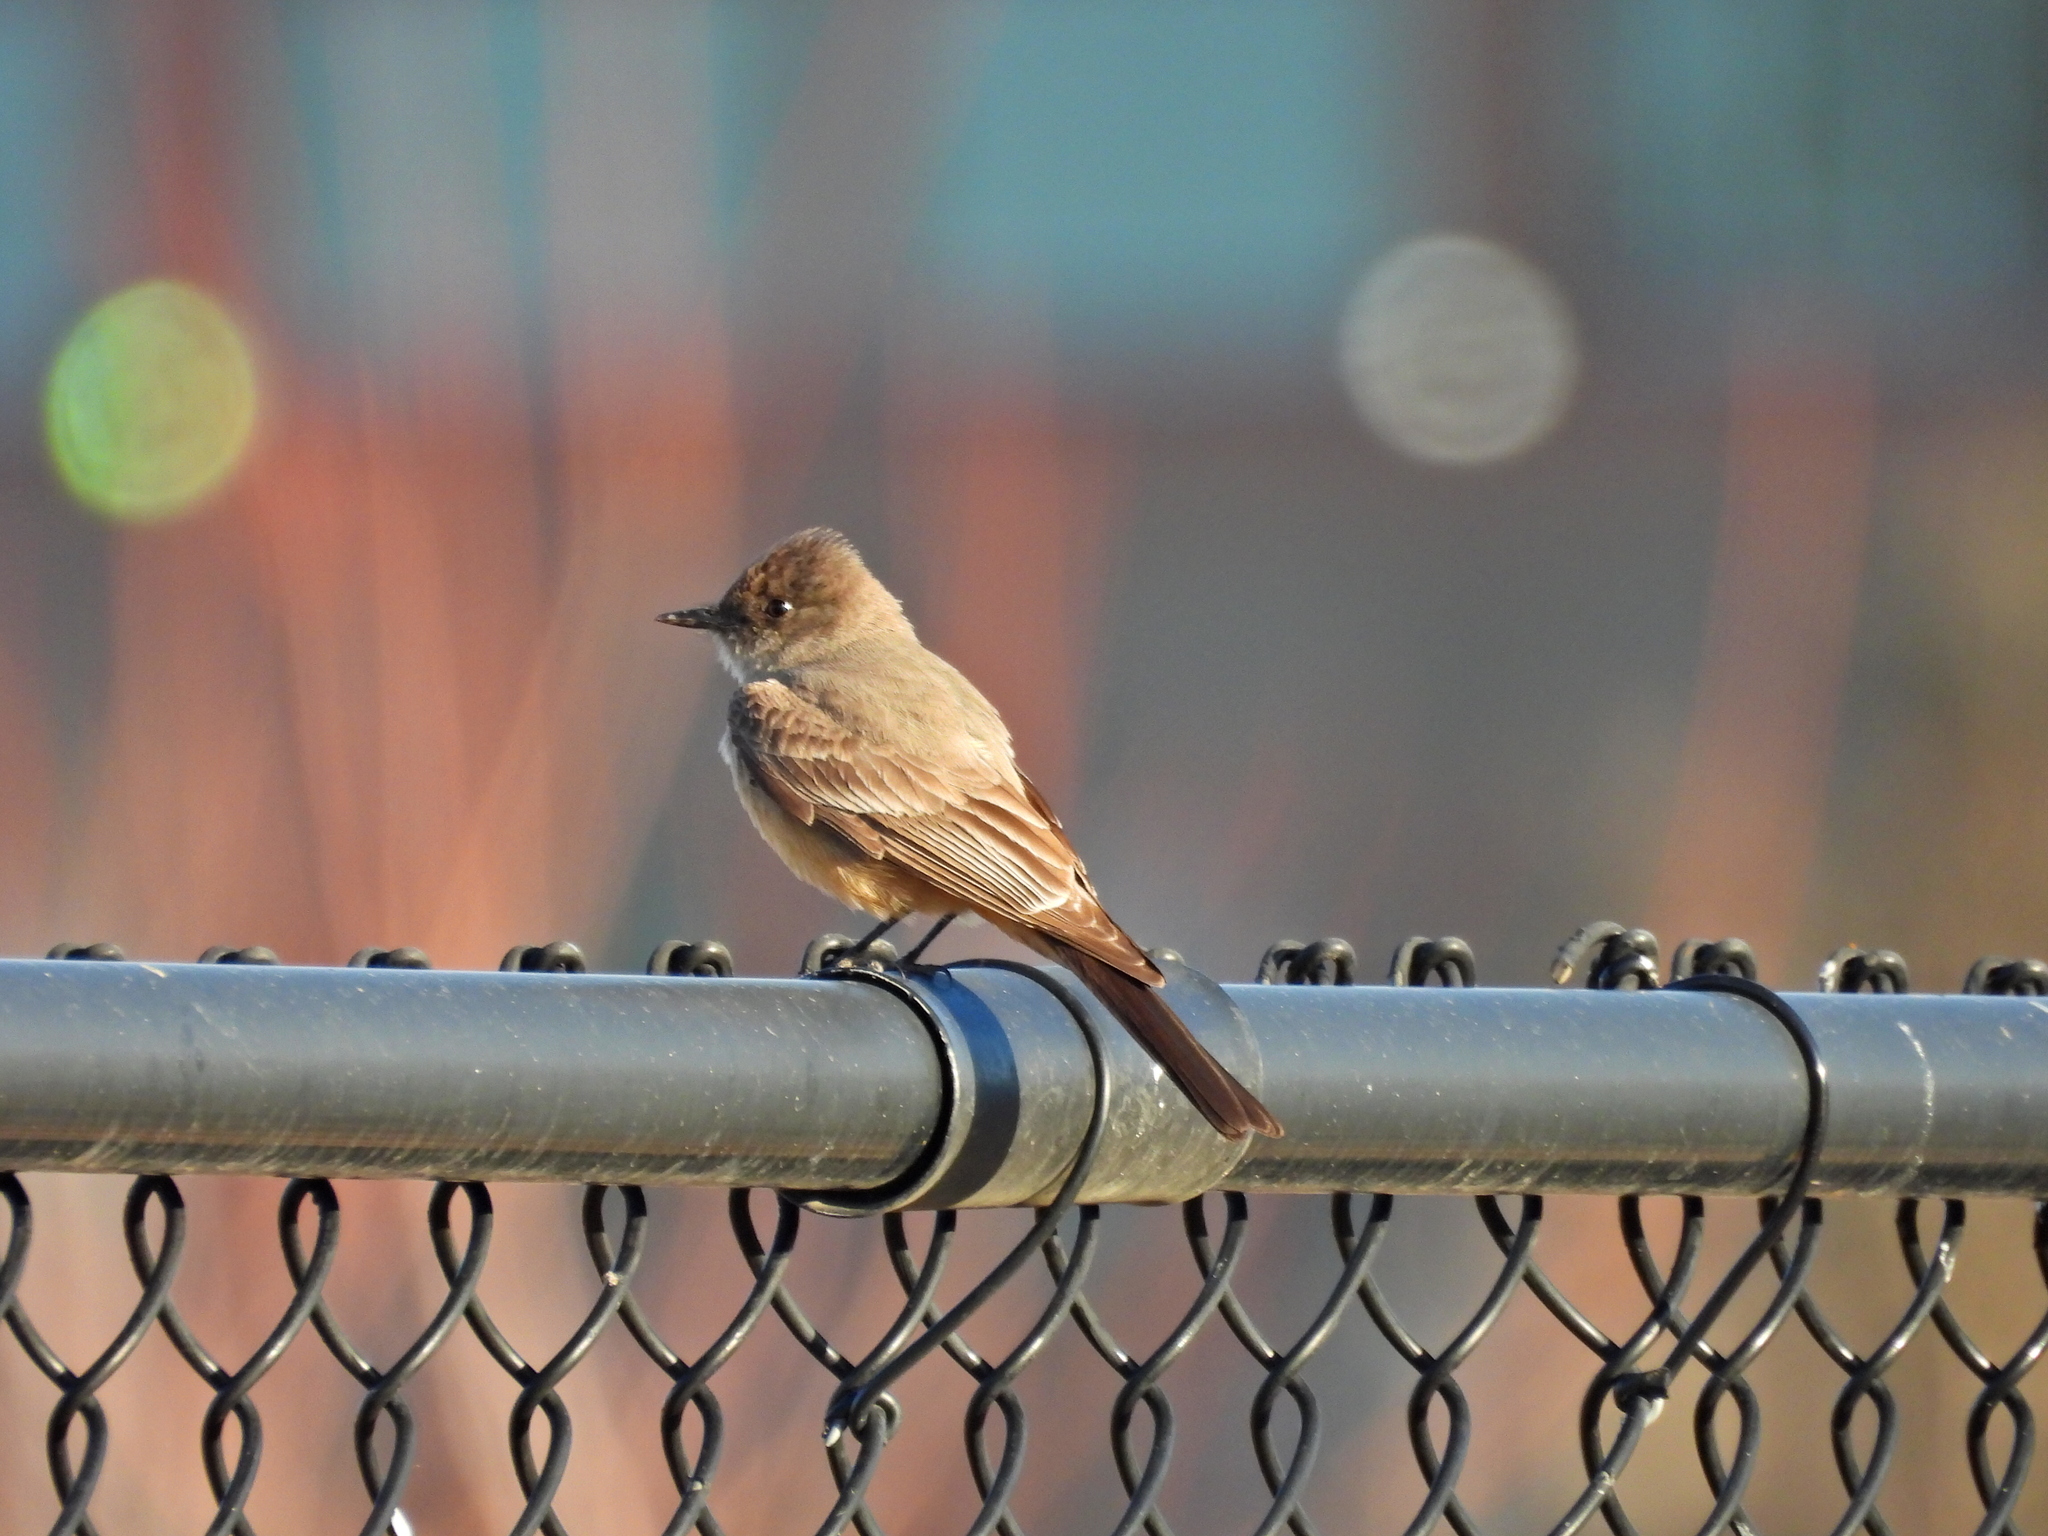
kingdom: Animalia
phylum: Chordata
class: Aves
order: Passeriformes
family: Tyrannidae
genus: Sayornis
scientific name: Sayornis saya
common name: Say's phoebe
